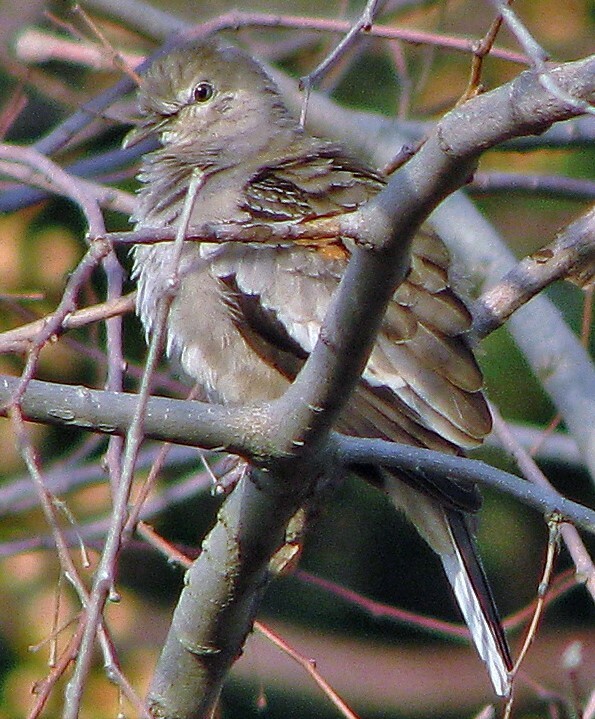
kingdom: Animalia
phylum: Chordata
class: Aves
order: Columbiformes
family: Columbidae
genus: Columbina
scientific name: Columbina picui
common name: Picui ground dove
